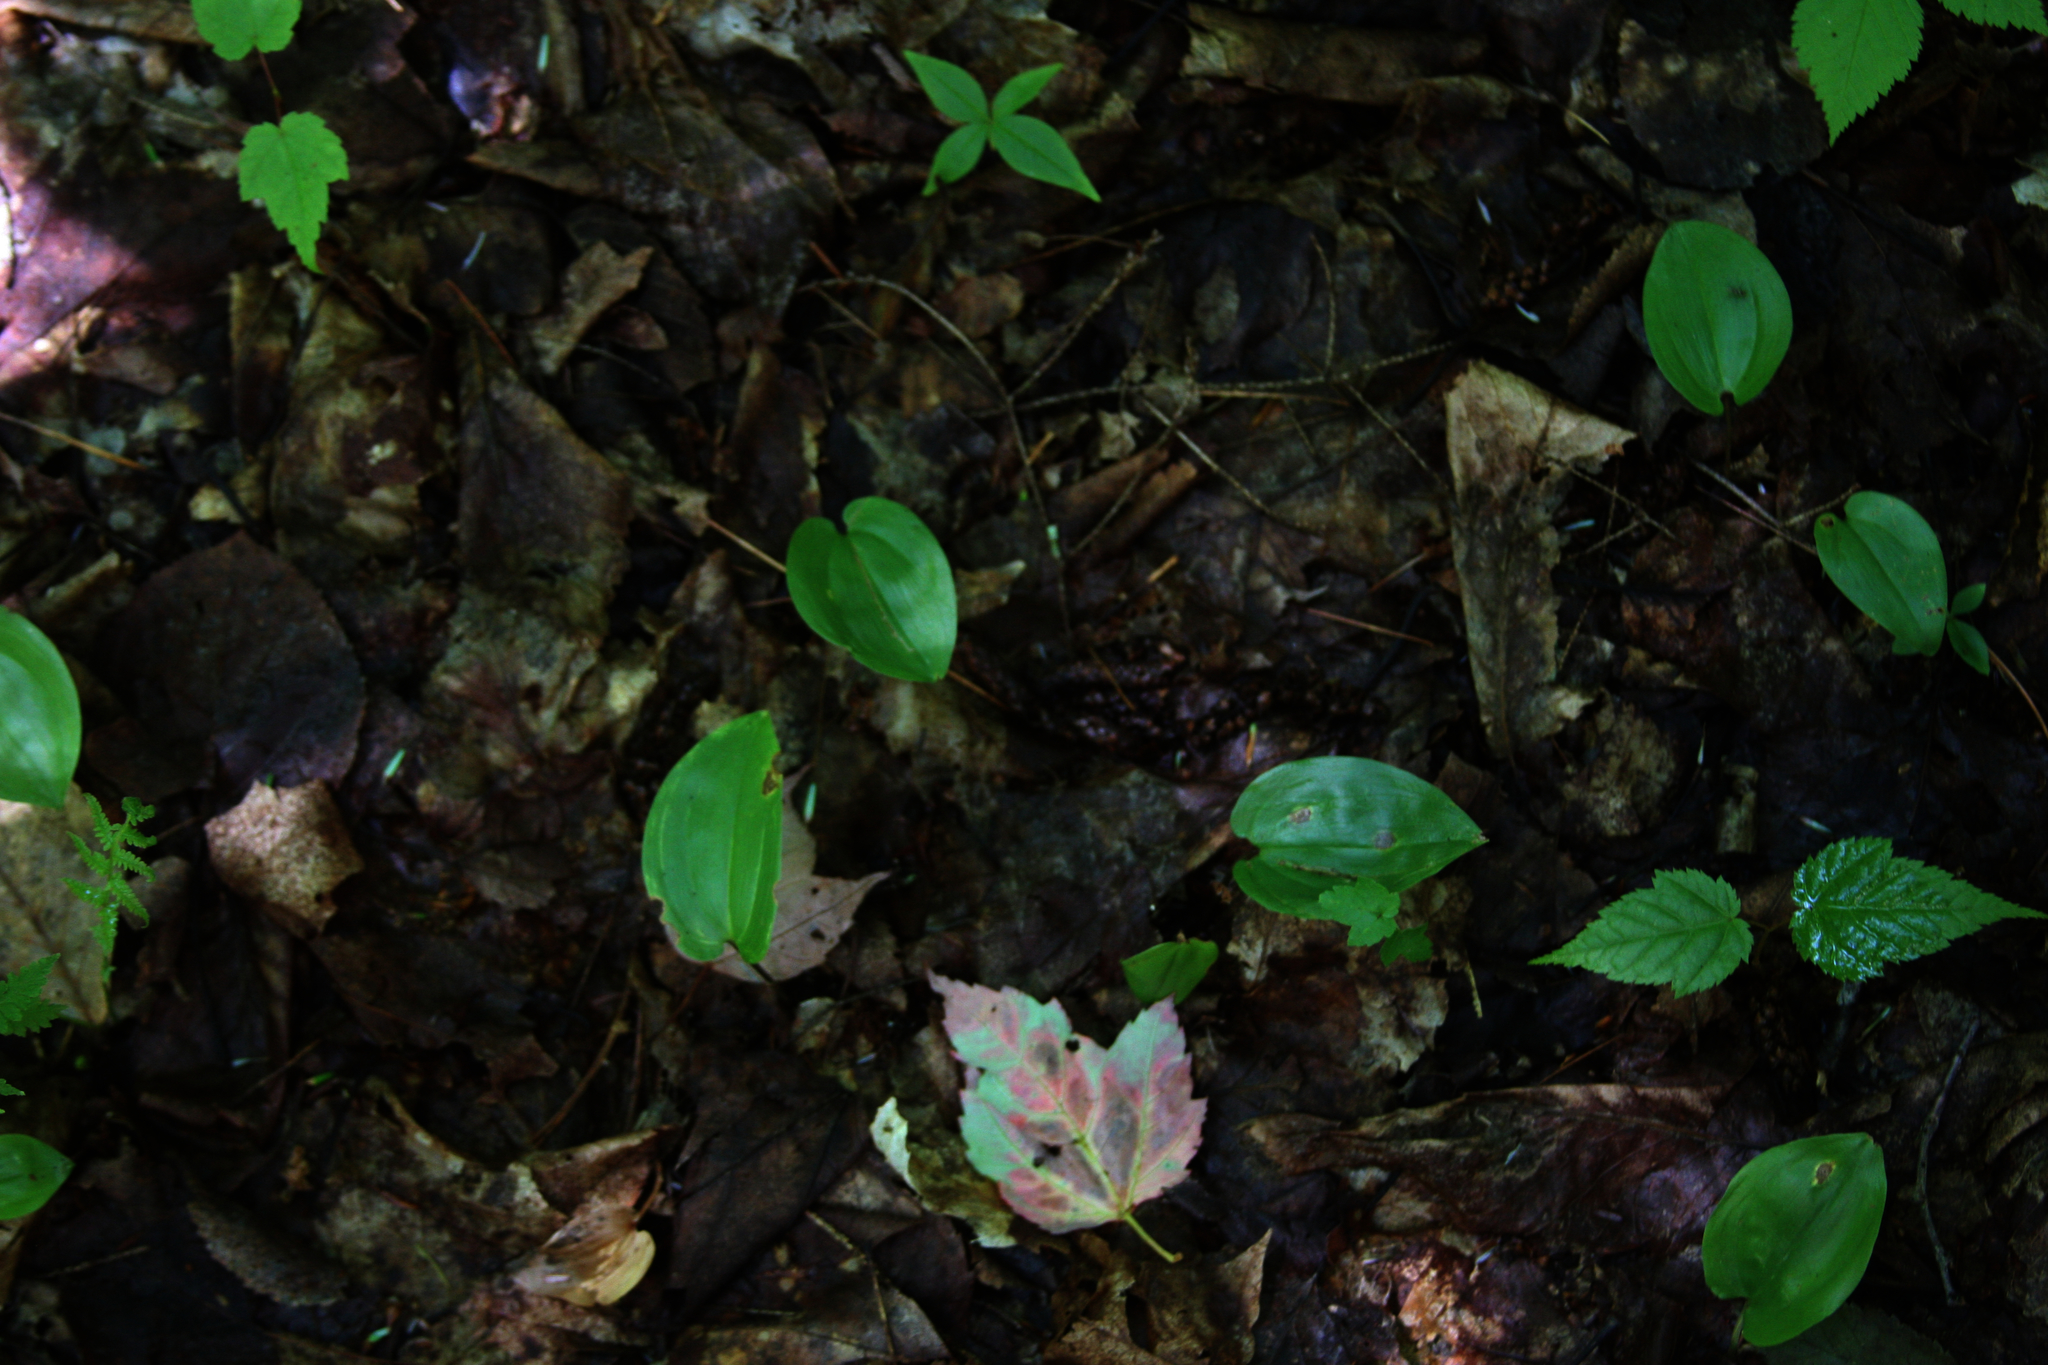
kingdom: Plantae
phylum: Tracheophyta
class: Liliopsida
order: Asparagales
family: Asparagaceae
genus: Maianthemum
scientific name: Maianthemum canadense
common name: False lily-of-the-valley
